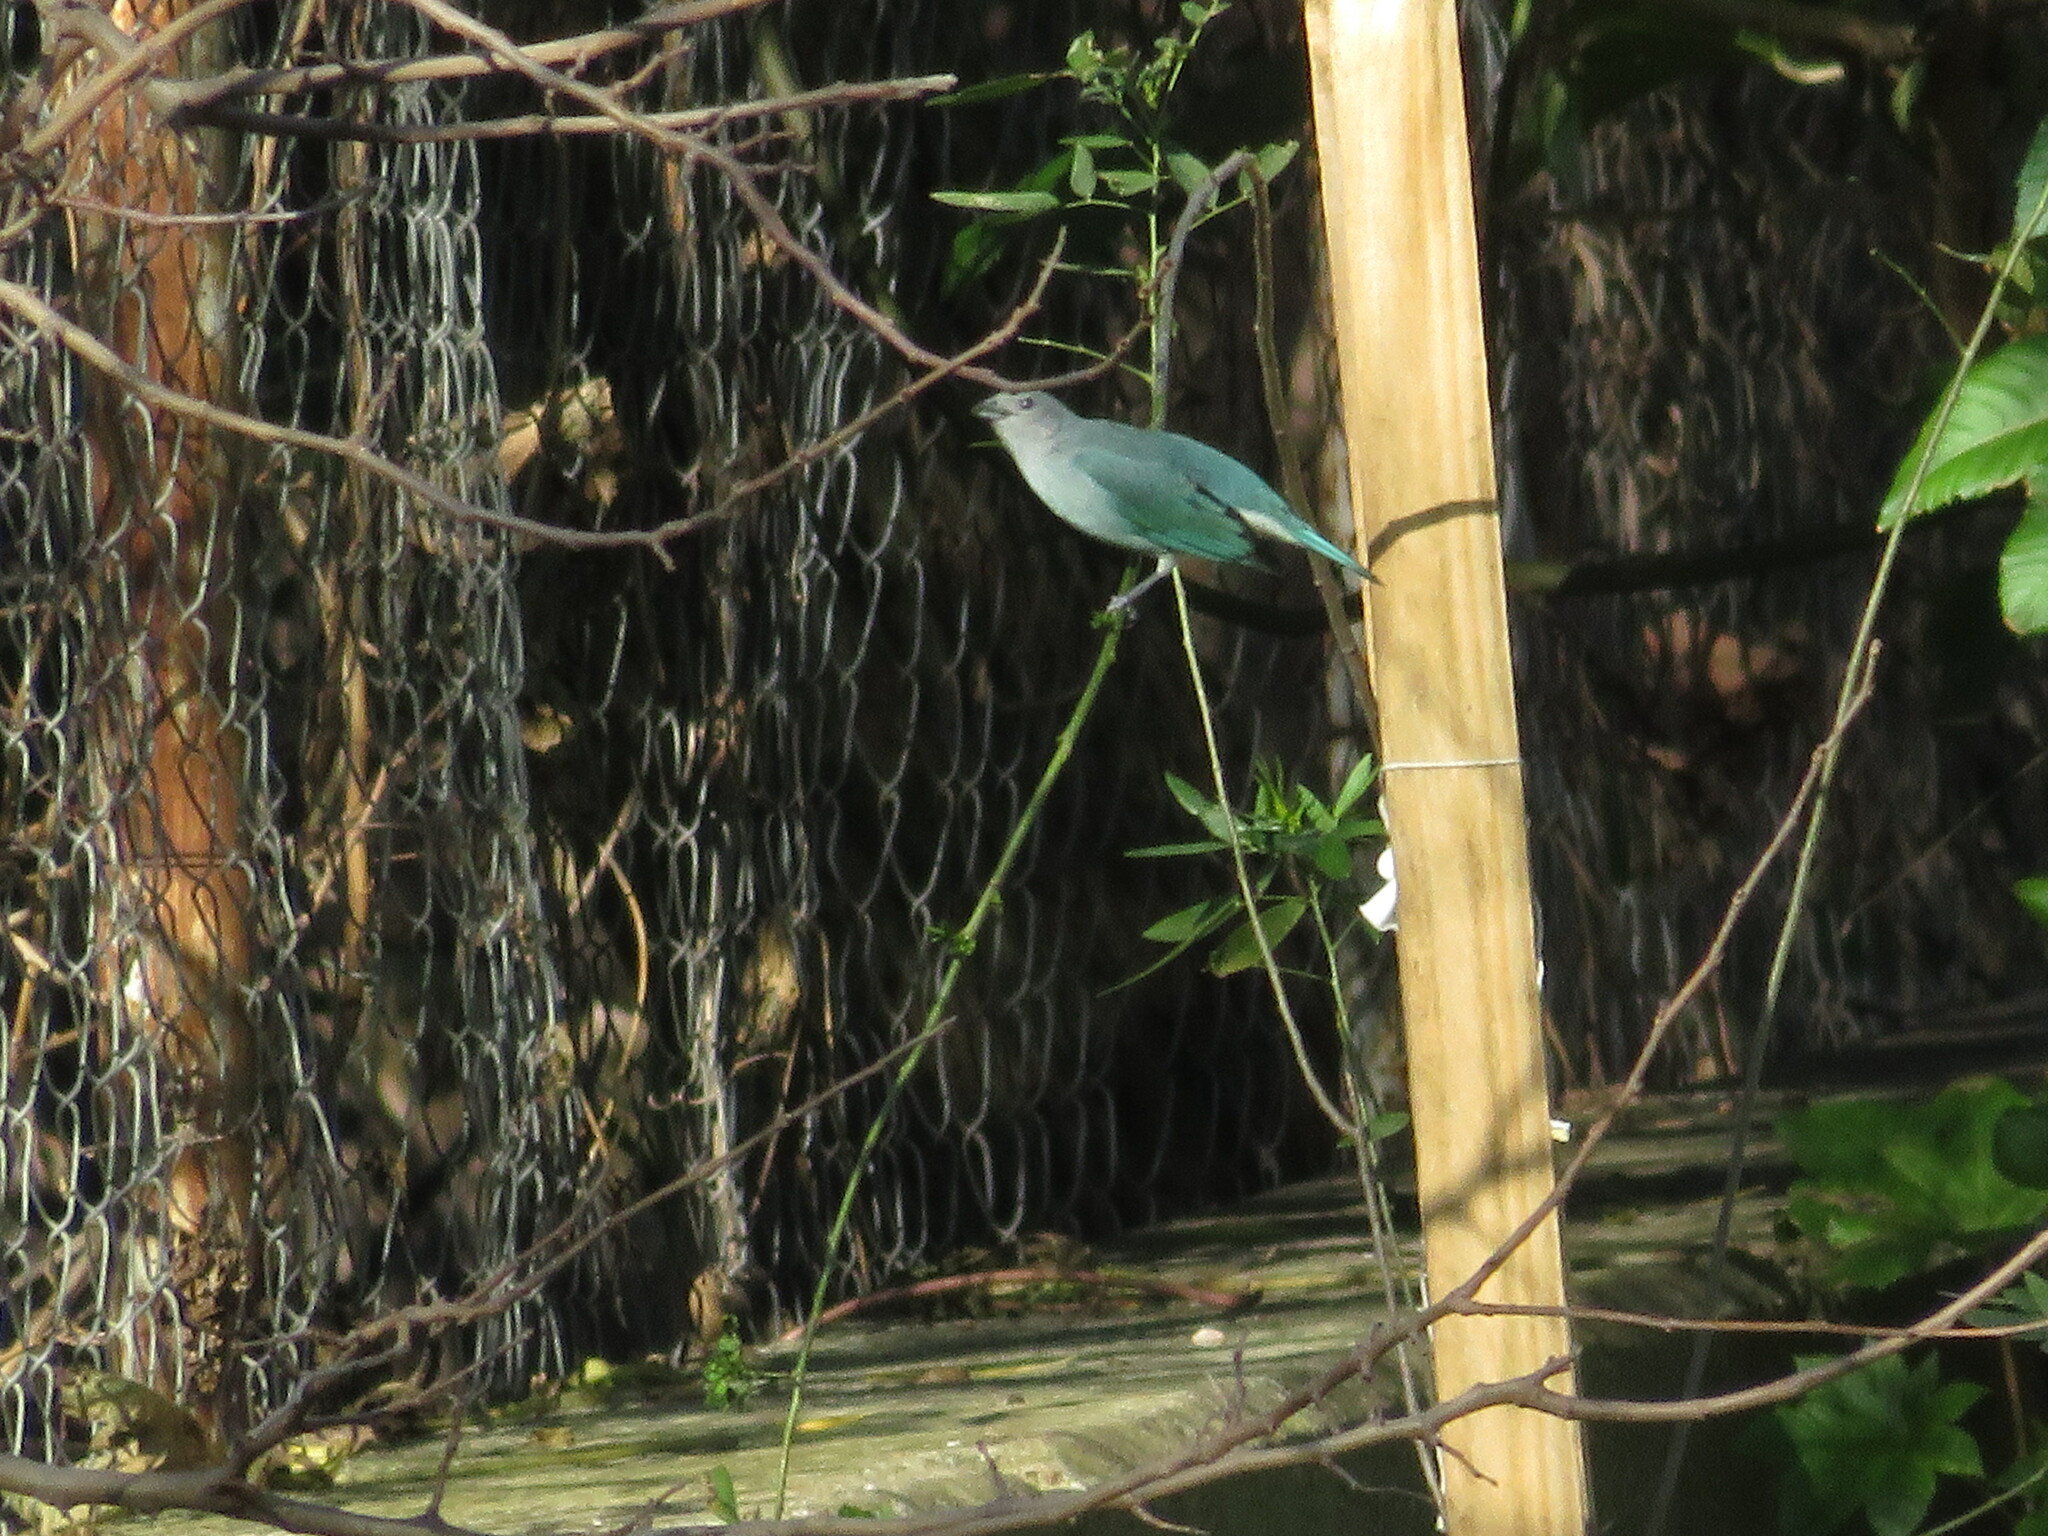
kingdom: Animalia
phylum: Chordata
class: Aves
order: Passeriformes
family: Thraupidae
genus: Thraupis
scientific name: Thraupis sayaca
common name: Sayaca tanager
